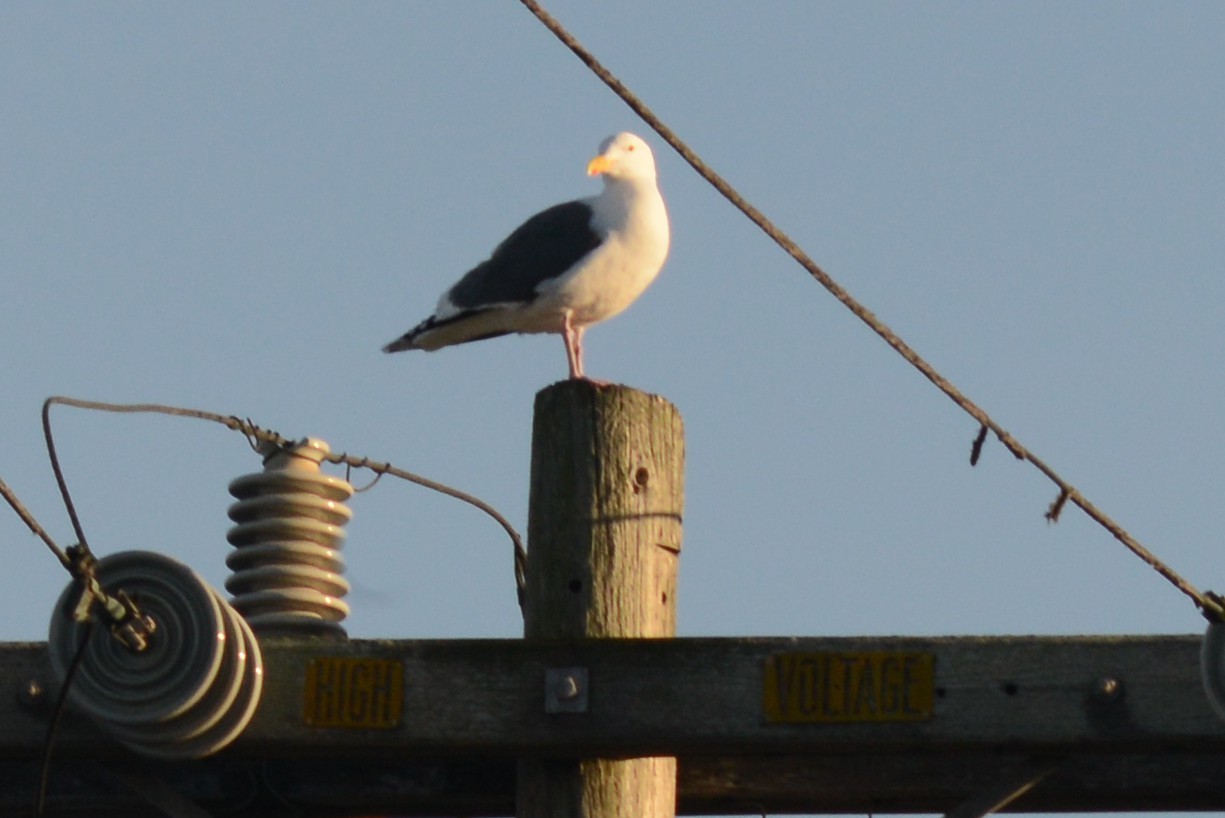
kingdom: Animalia
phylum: Chordata
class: Aves
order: Charadriiformes
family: Laridae
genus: Larus
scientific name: Larus occidentalis
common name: Western gull
